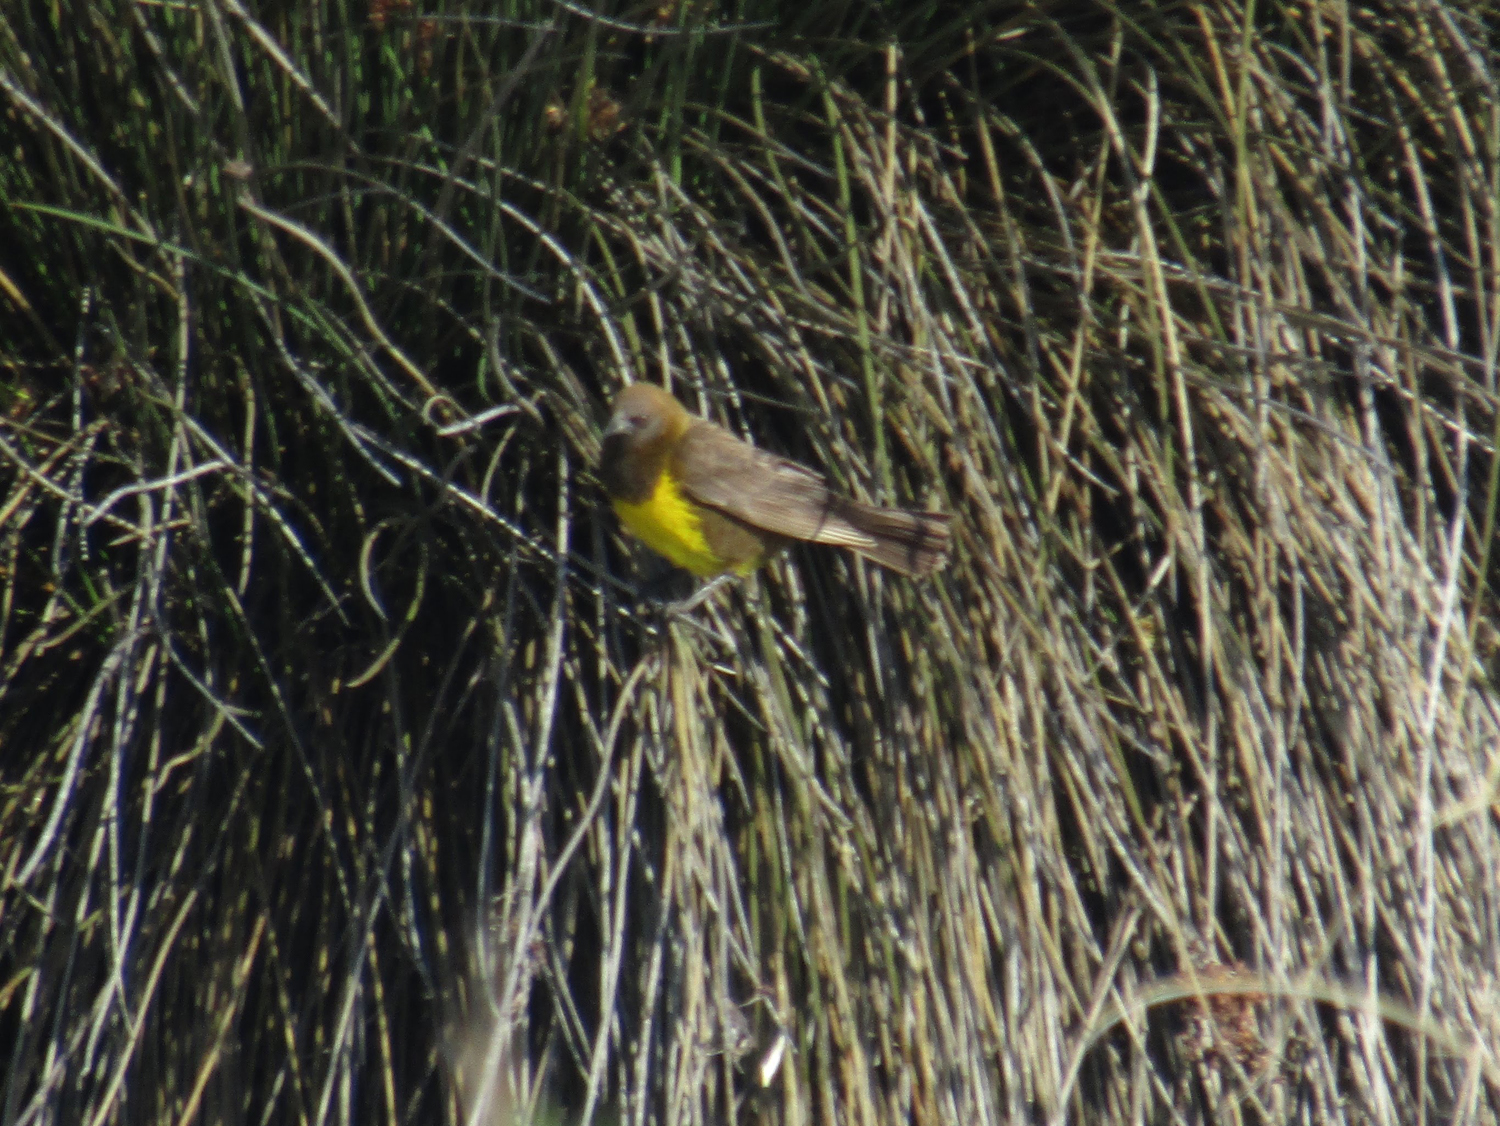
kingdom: Animalia
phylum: Chordata
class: Aves
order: Passeriformes
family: Icteridae
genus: Pseudoleistes
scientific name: Pseudoleistes virescens
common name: Brown-and-yellow marshbird
